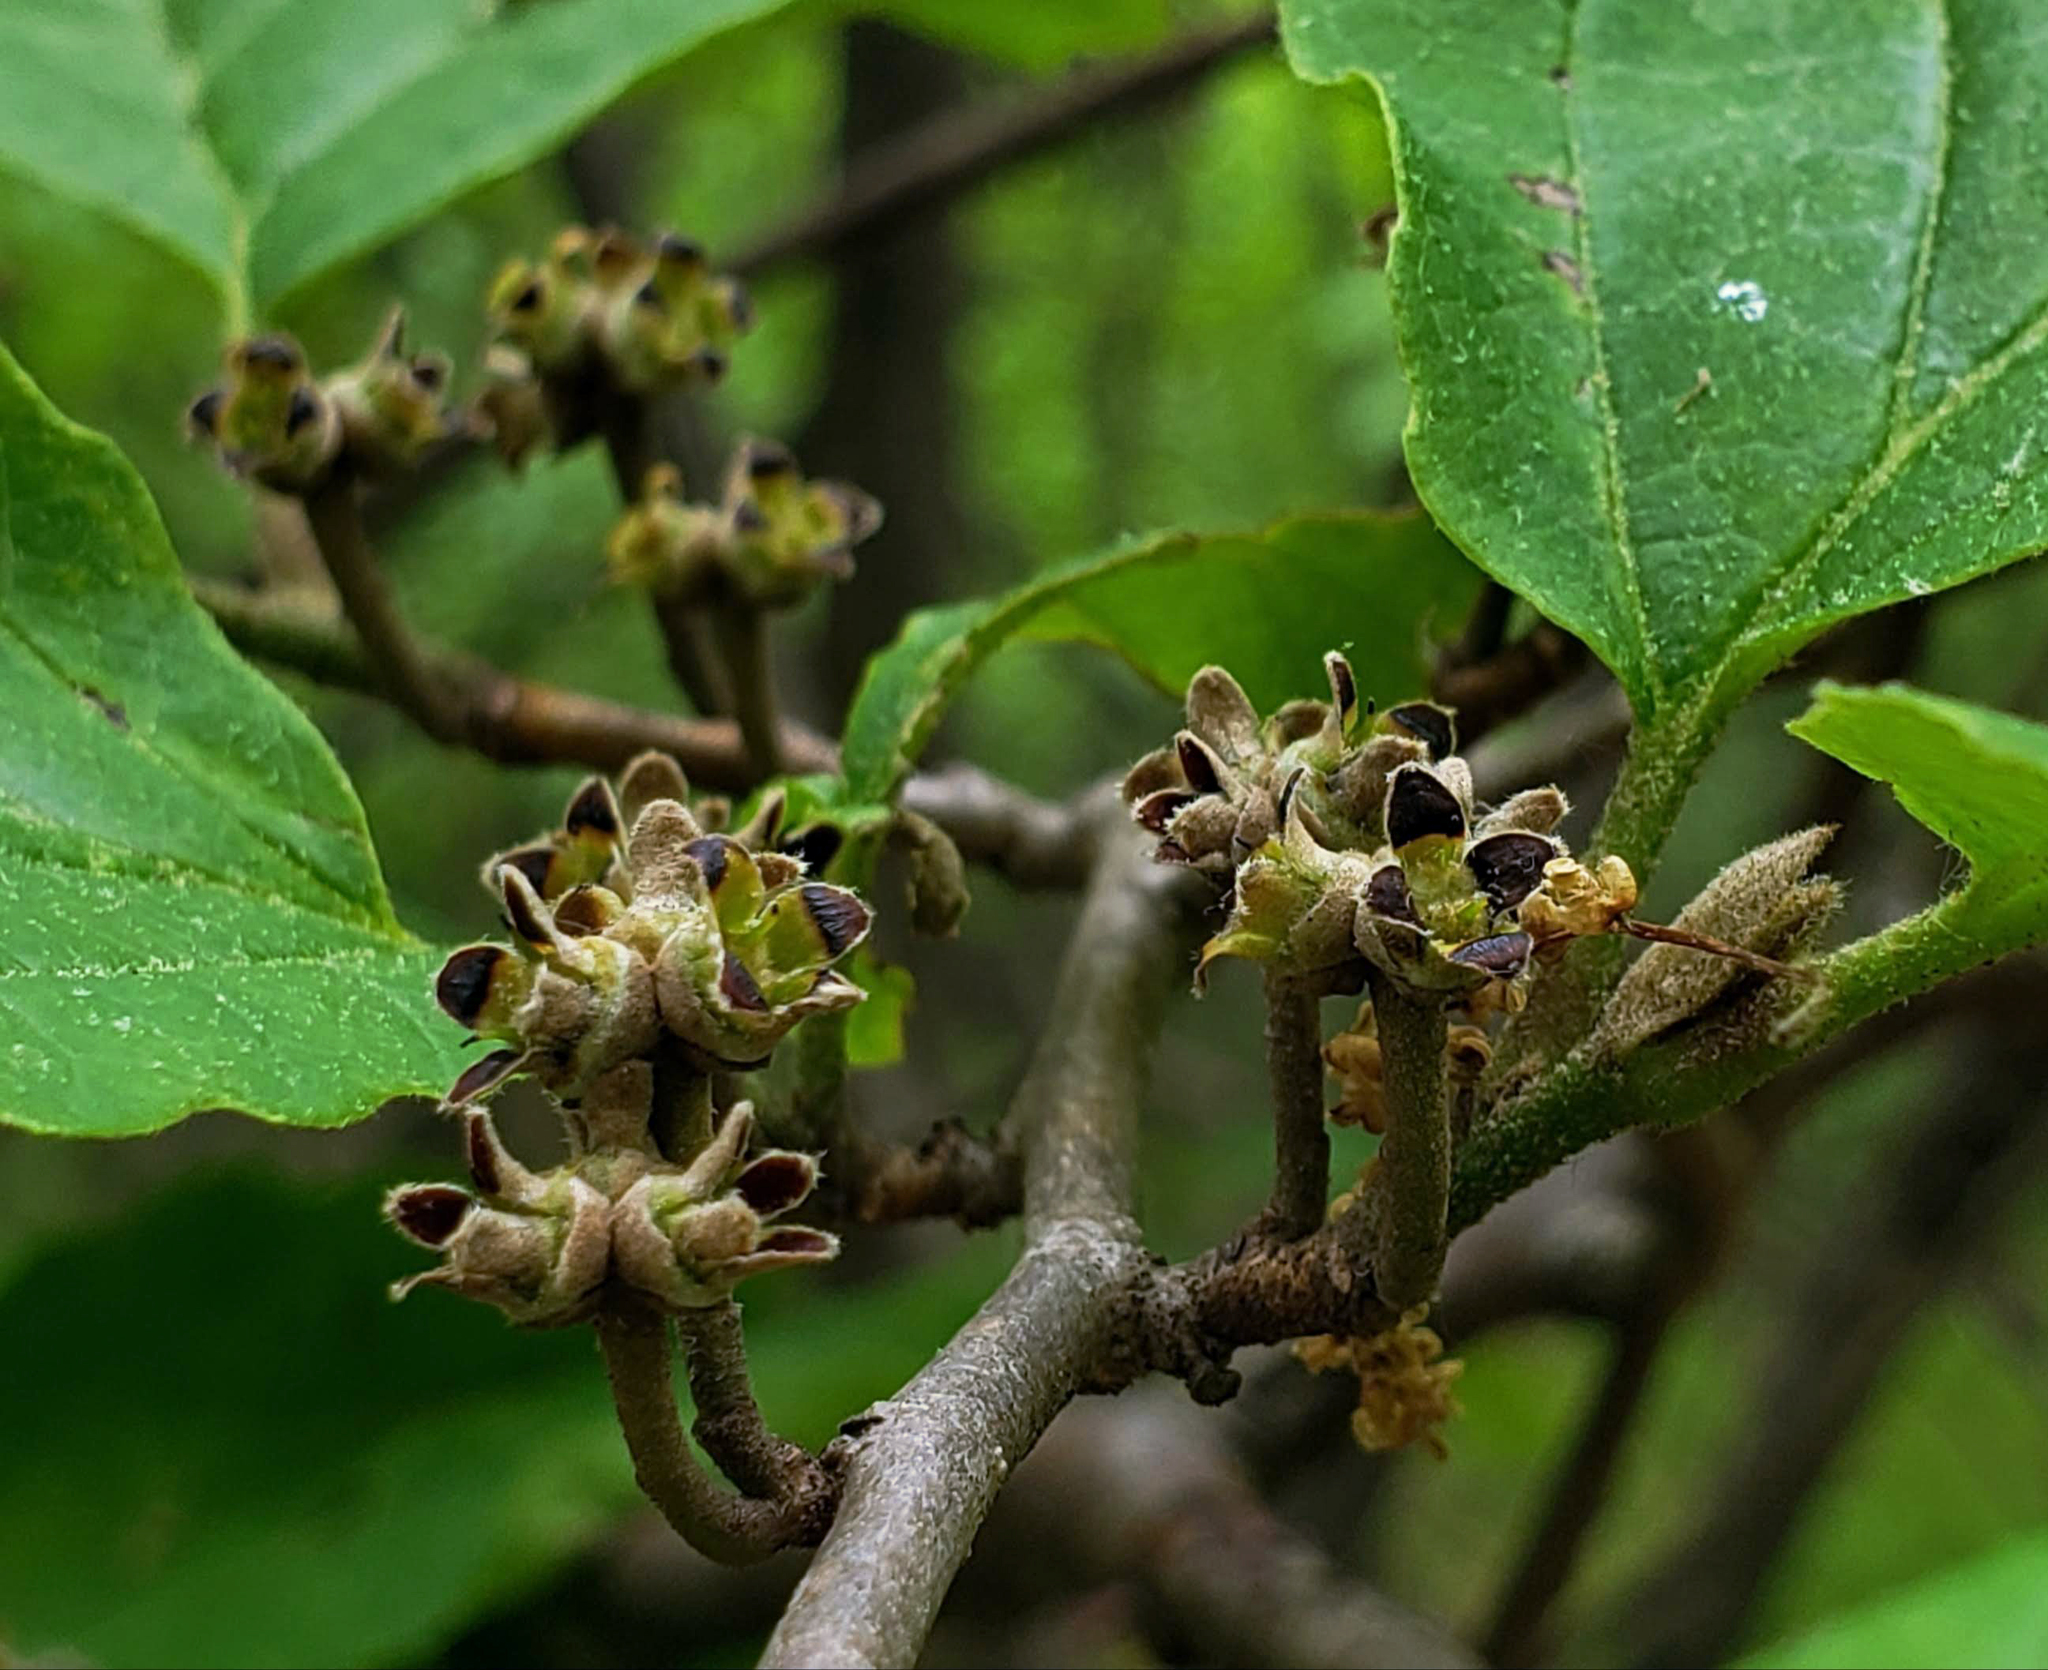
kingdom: Plantae
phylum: Tracheophyta
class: Magnoliopsida
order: Saxifragales
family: Hamamelidaceae
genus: Hamamelis
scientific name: Hamamelis virginiana
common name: Witch-hazel
